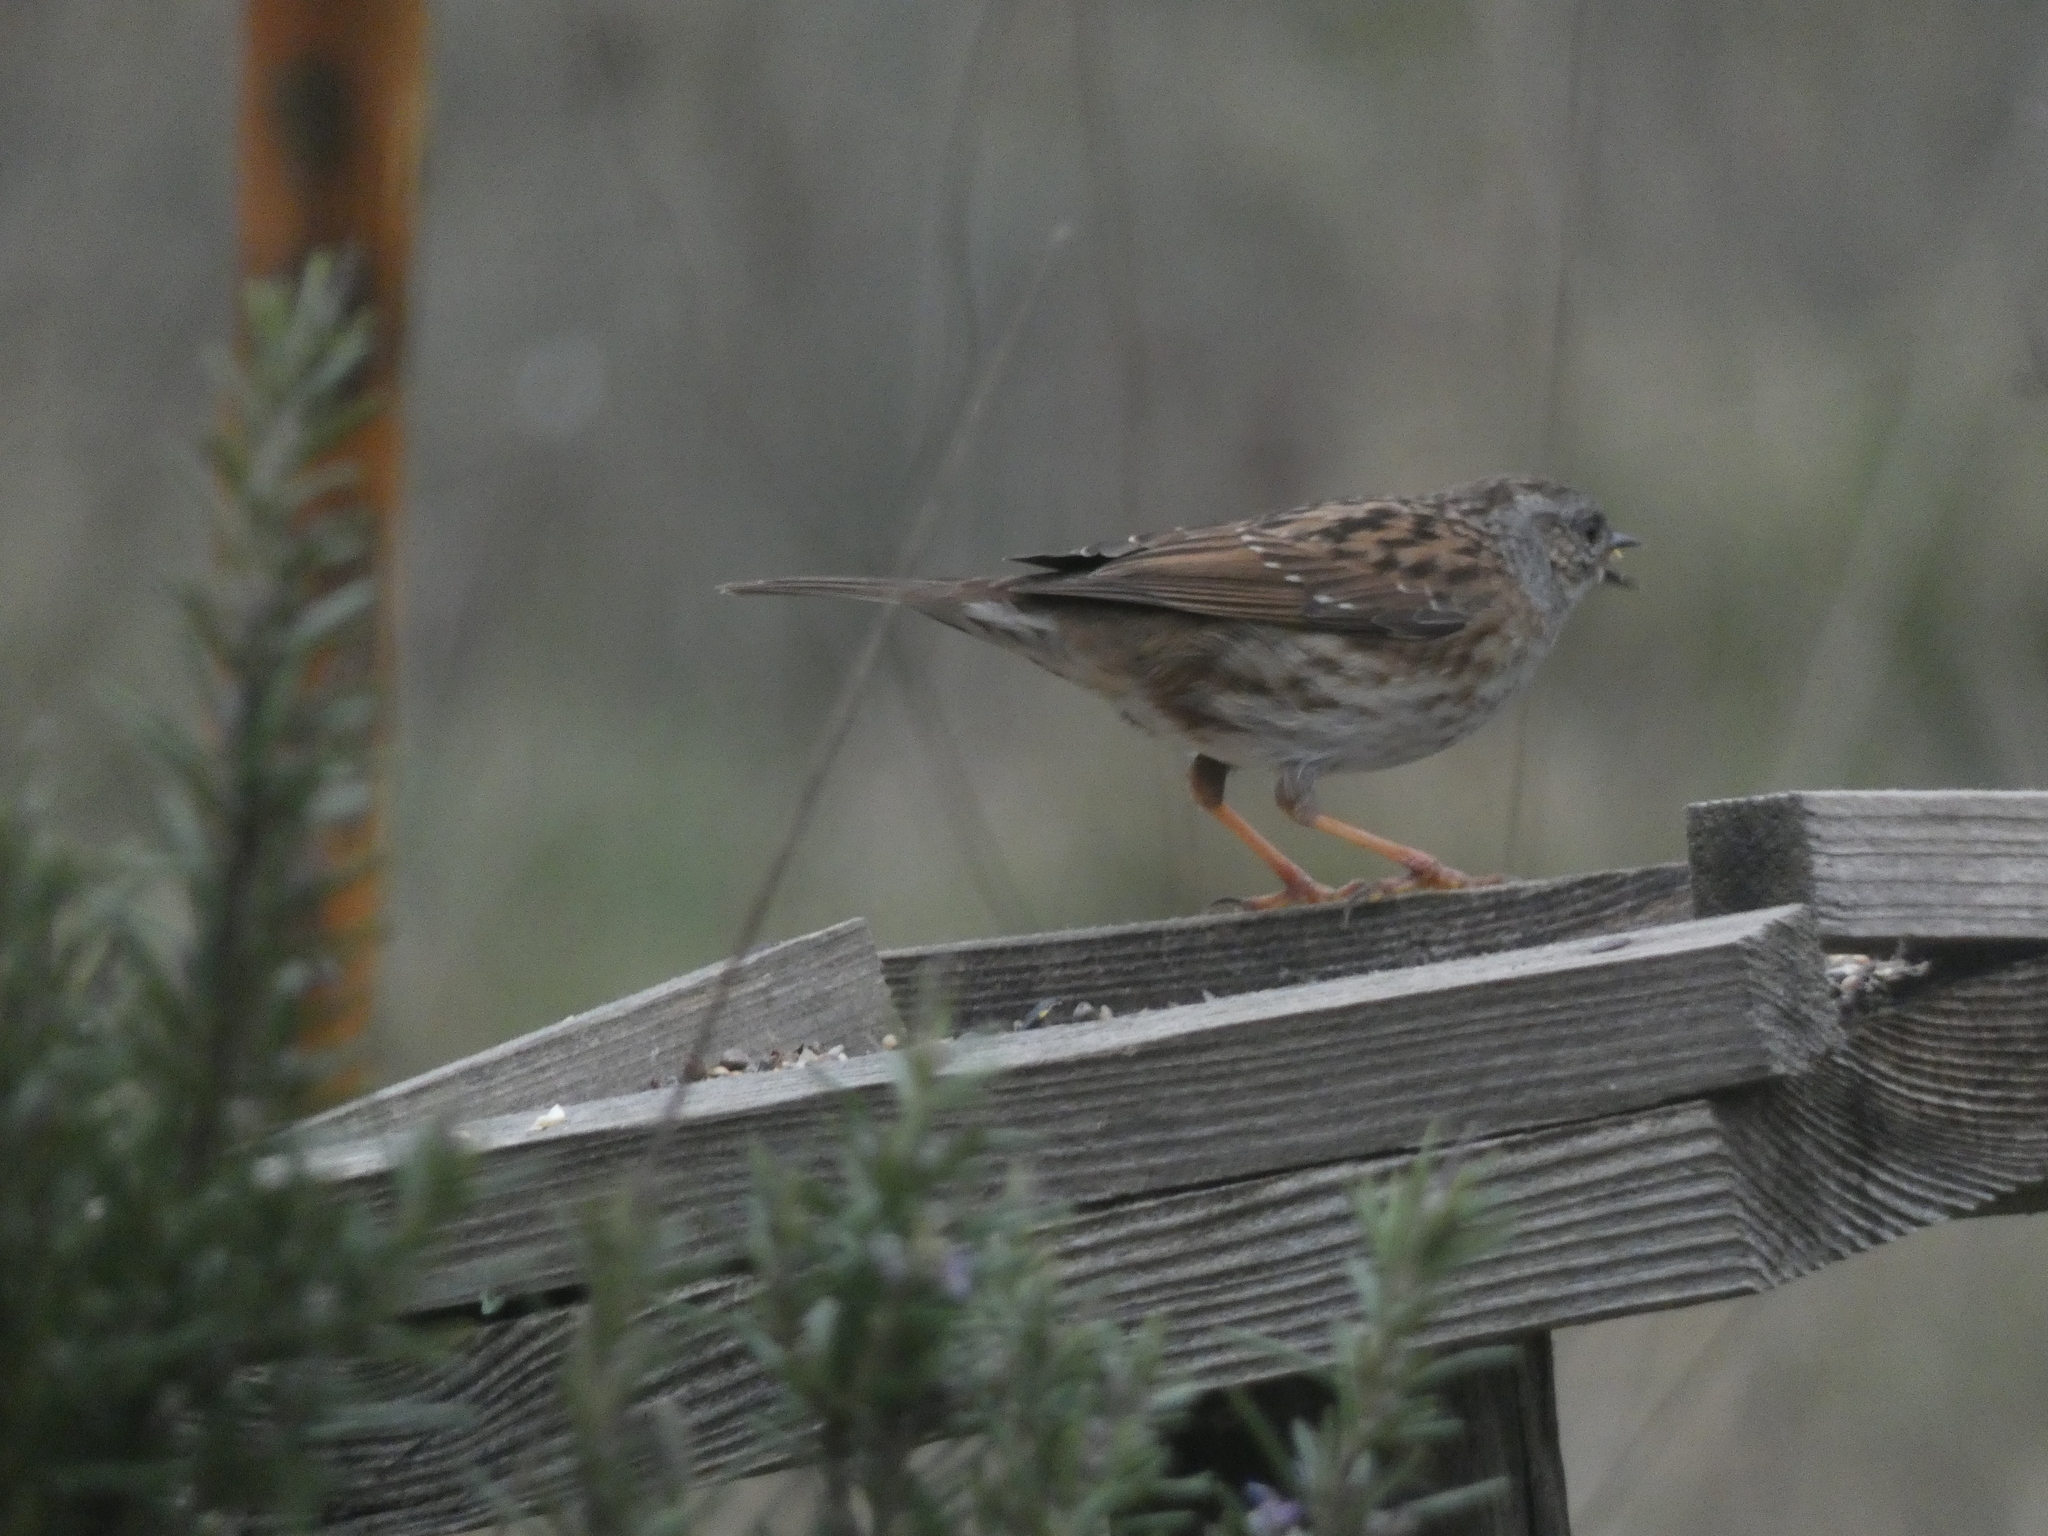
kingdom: Animalia
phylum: Chordata
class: Aves
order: Passeriformes
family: Prunellidae
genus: Prunella
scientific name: Prunella modularis
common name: Dunnock
